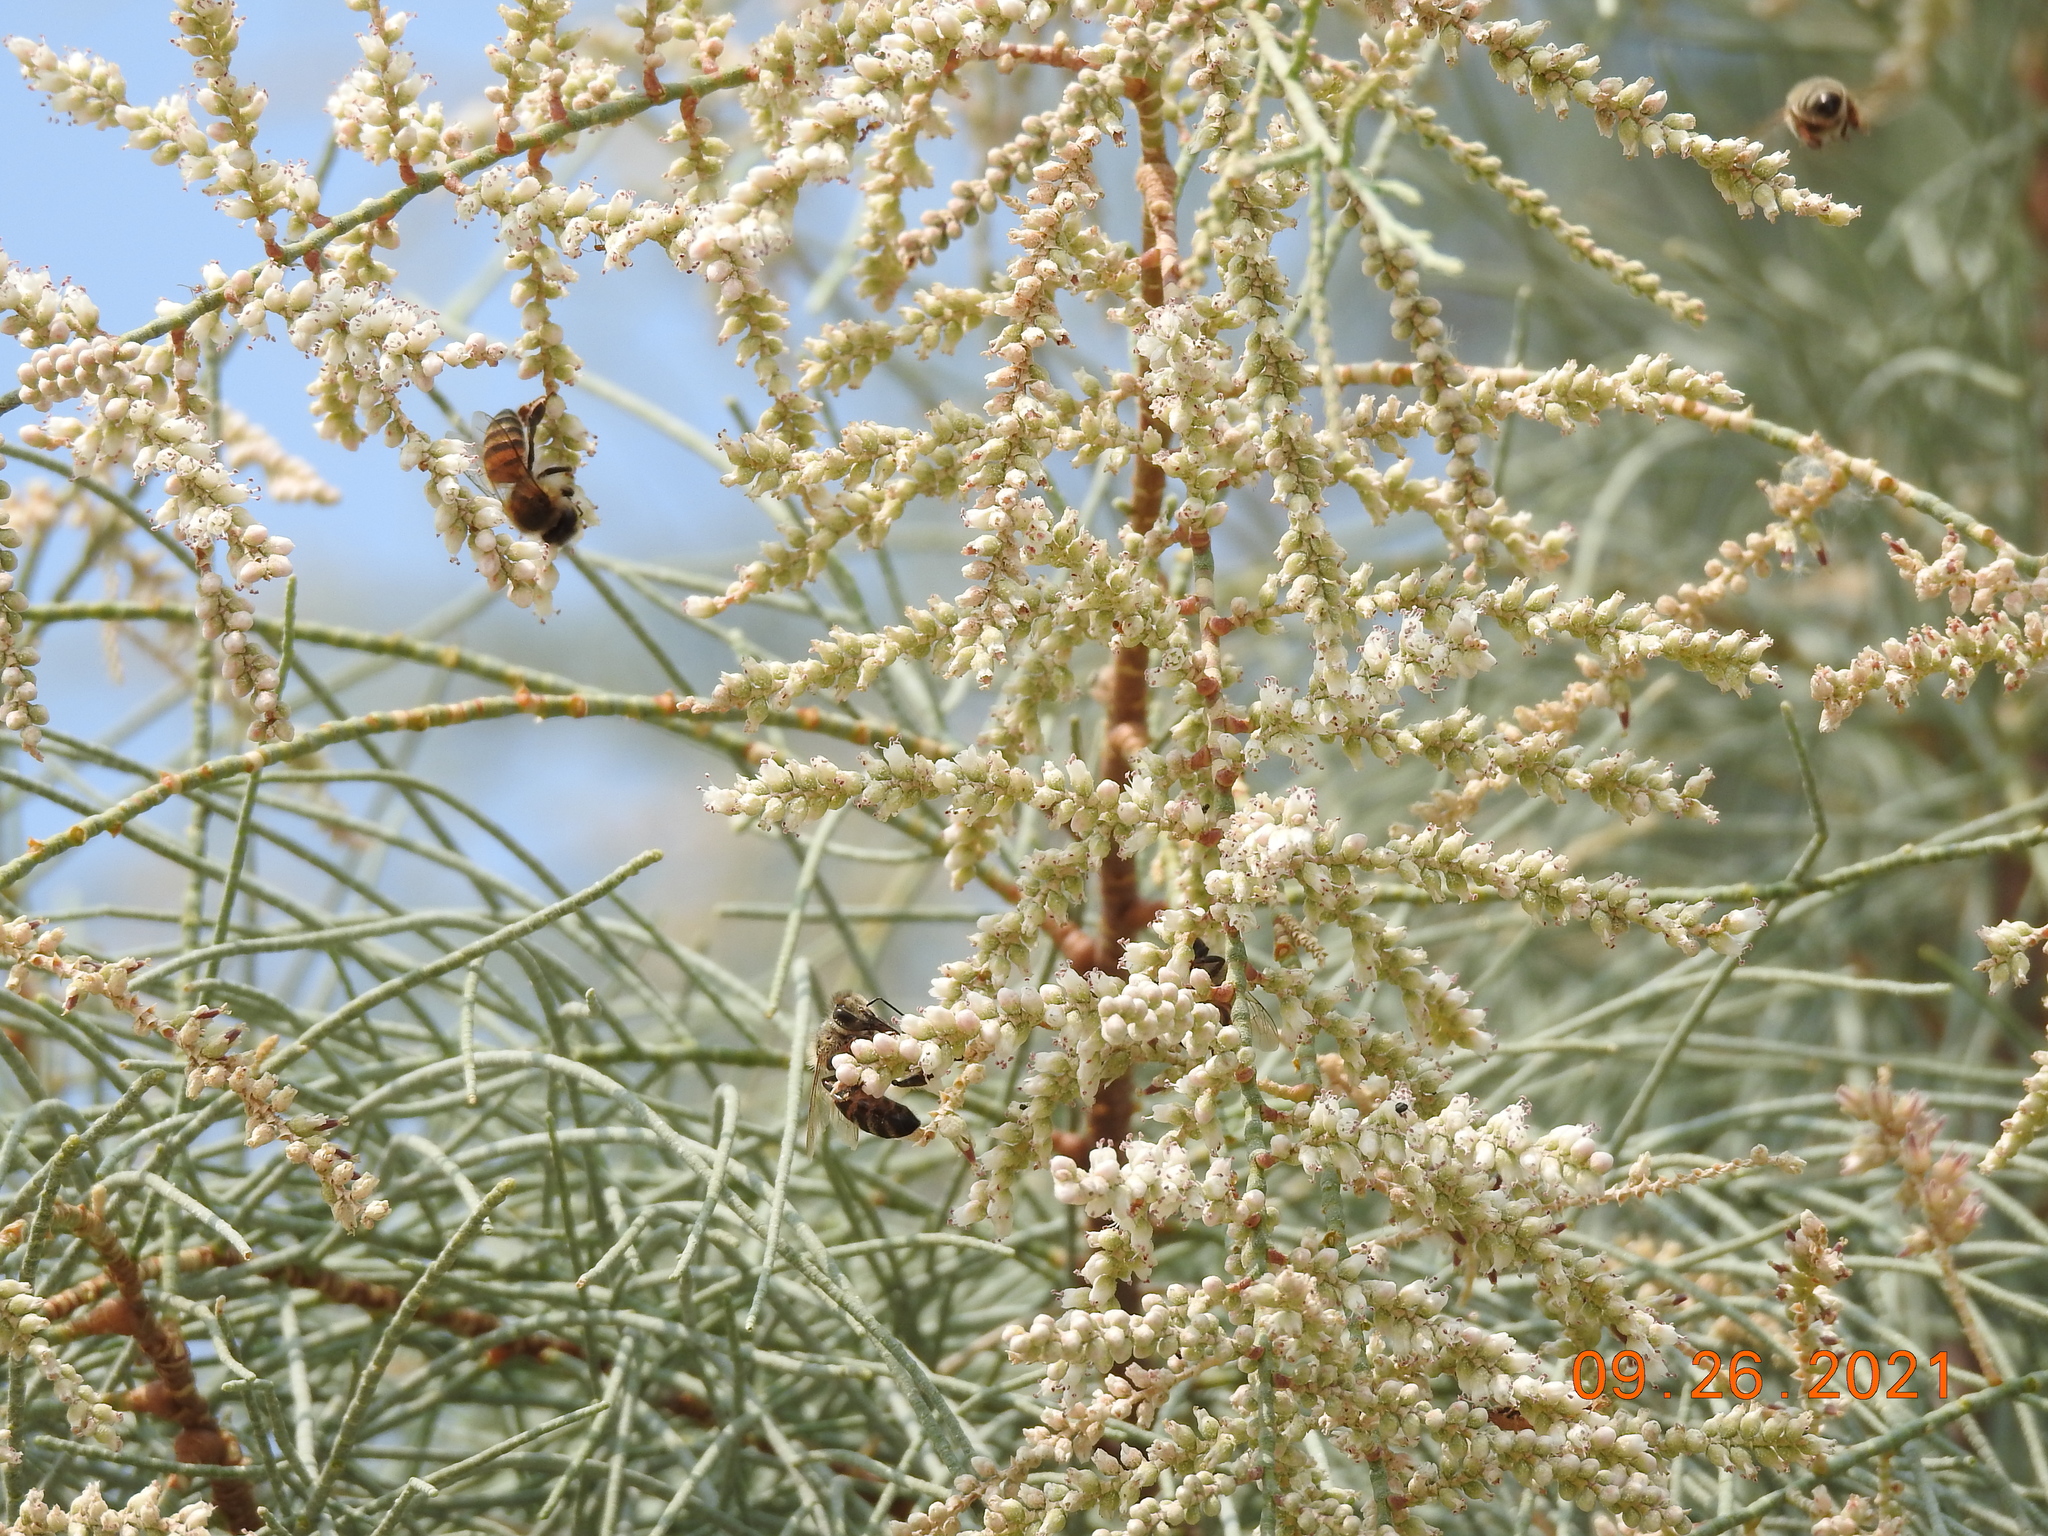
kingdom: Animalia
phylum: Arthropoda
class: Insecta
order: Hymenoptera
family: Apidae
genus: Apis
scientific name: Apis mellifera
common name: Honey bee
